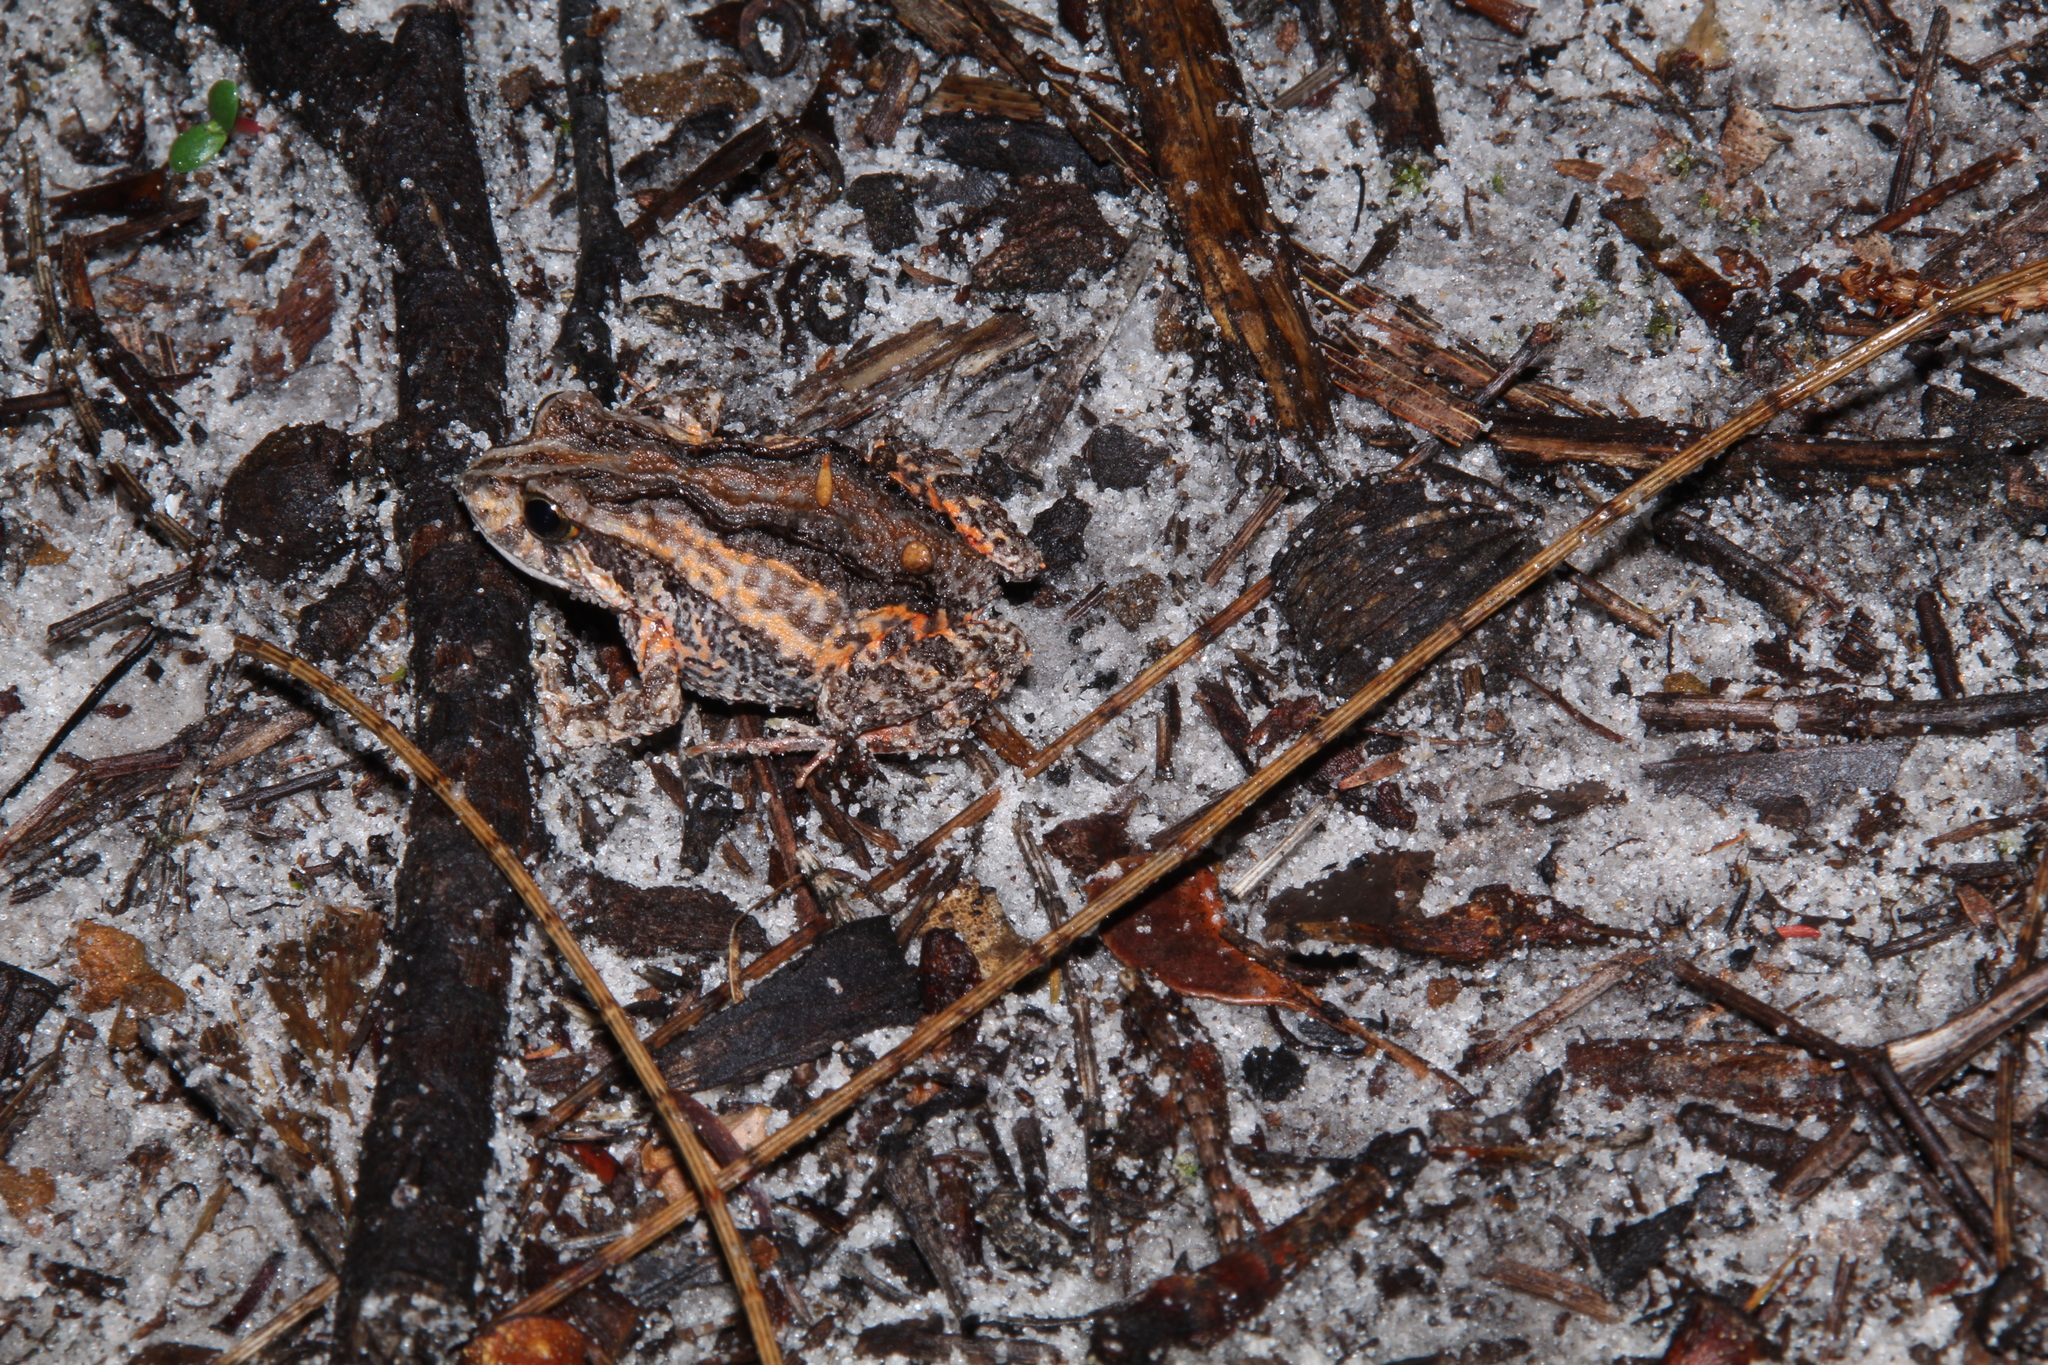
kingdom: Animalia
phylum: Chordata
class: Amphibia
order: Anura
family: Myobatrachidae
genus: Crinia
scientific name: Crinia pseudinsignifera
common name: False western froglet
